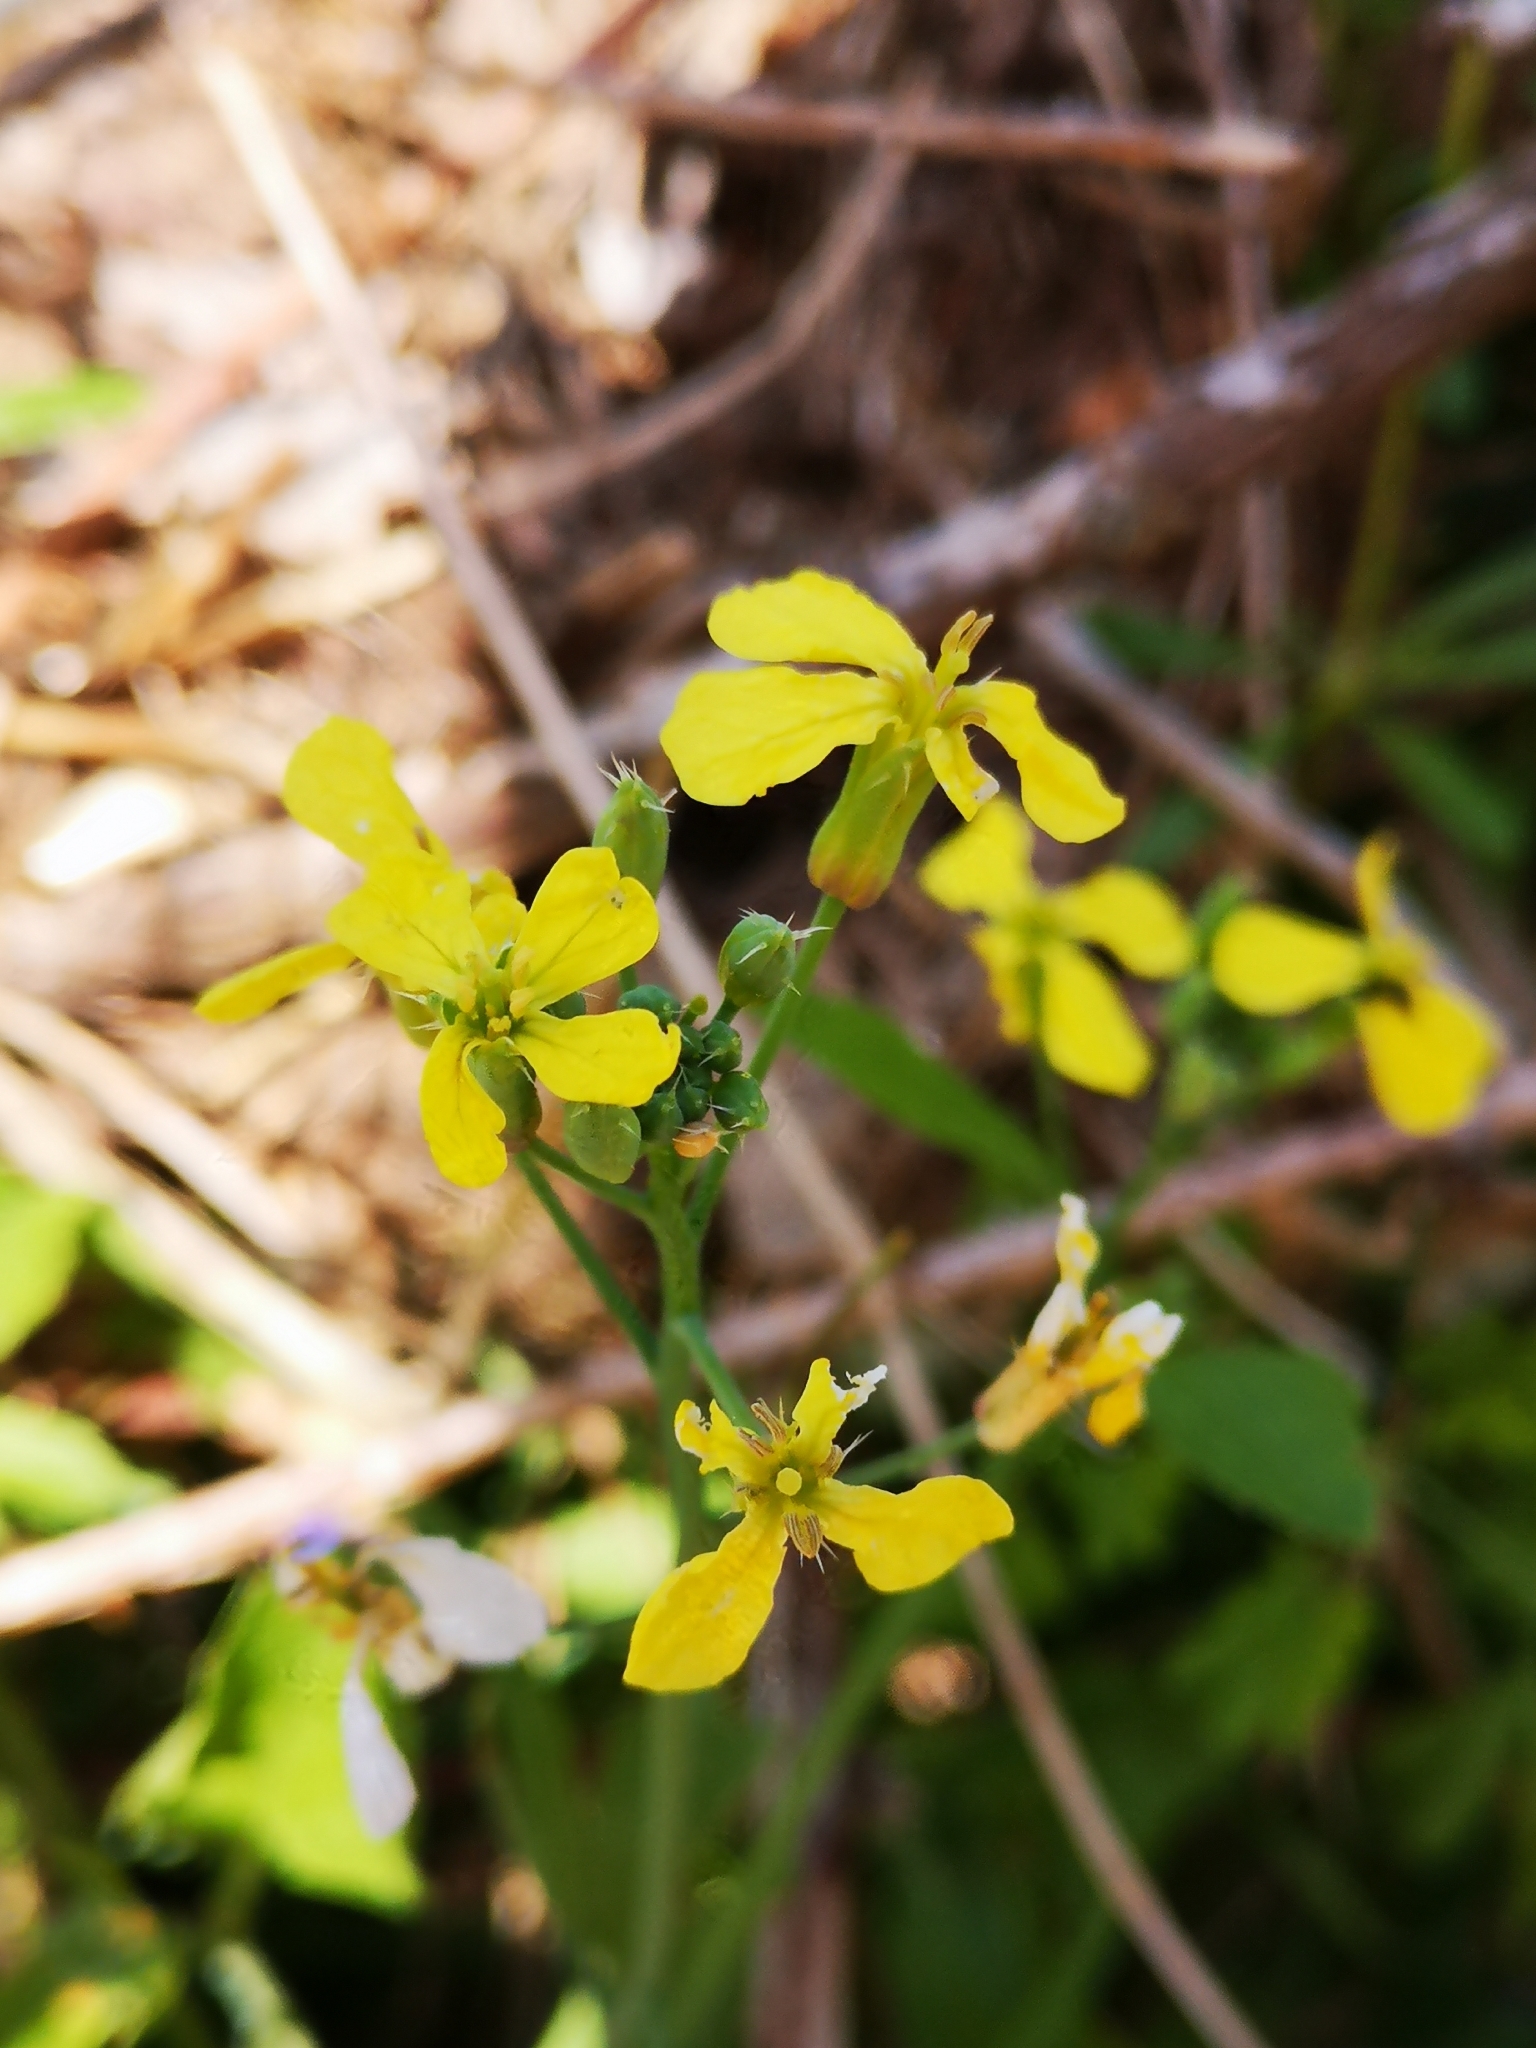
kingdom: Plantae
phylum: Tracheophyta
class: Magnoliopsida
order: Brassicales
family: Brassicaceae
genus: Raphanus
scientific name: Raphanus raphanistrum
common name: Wild radish
